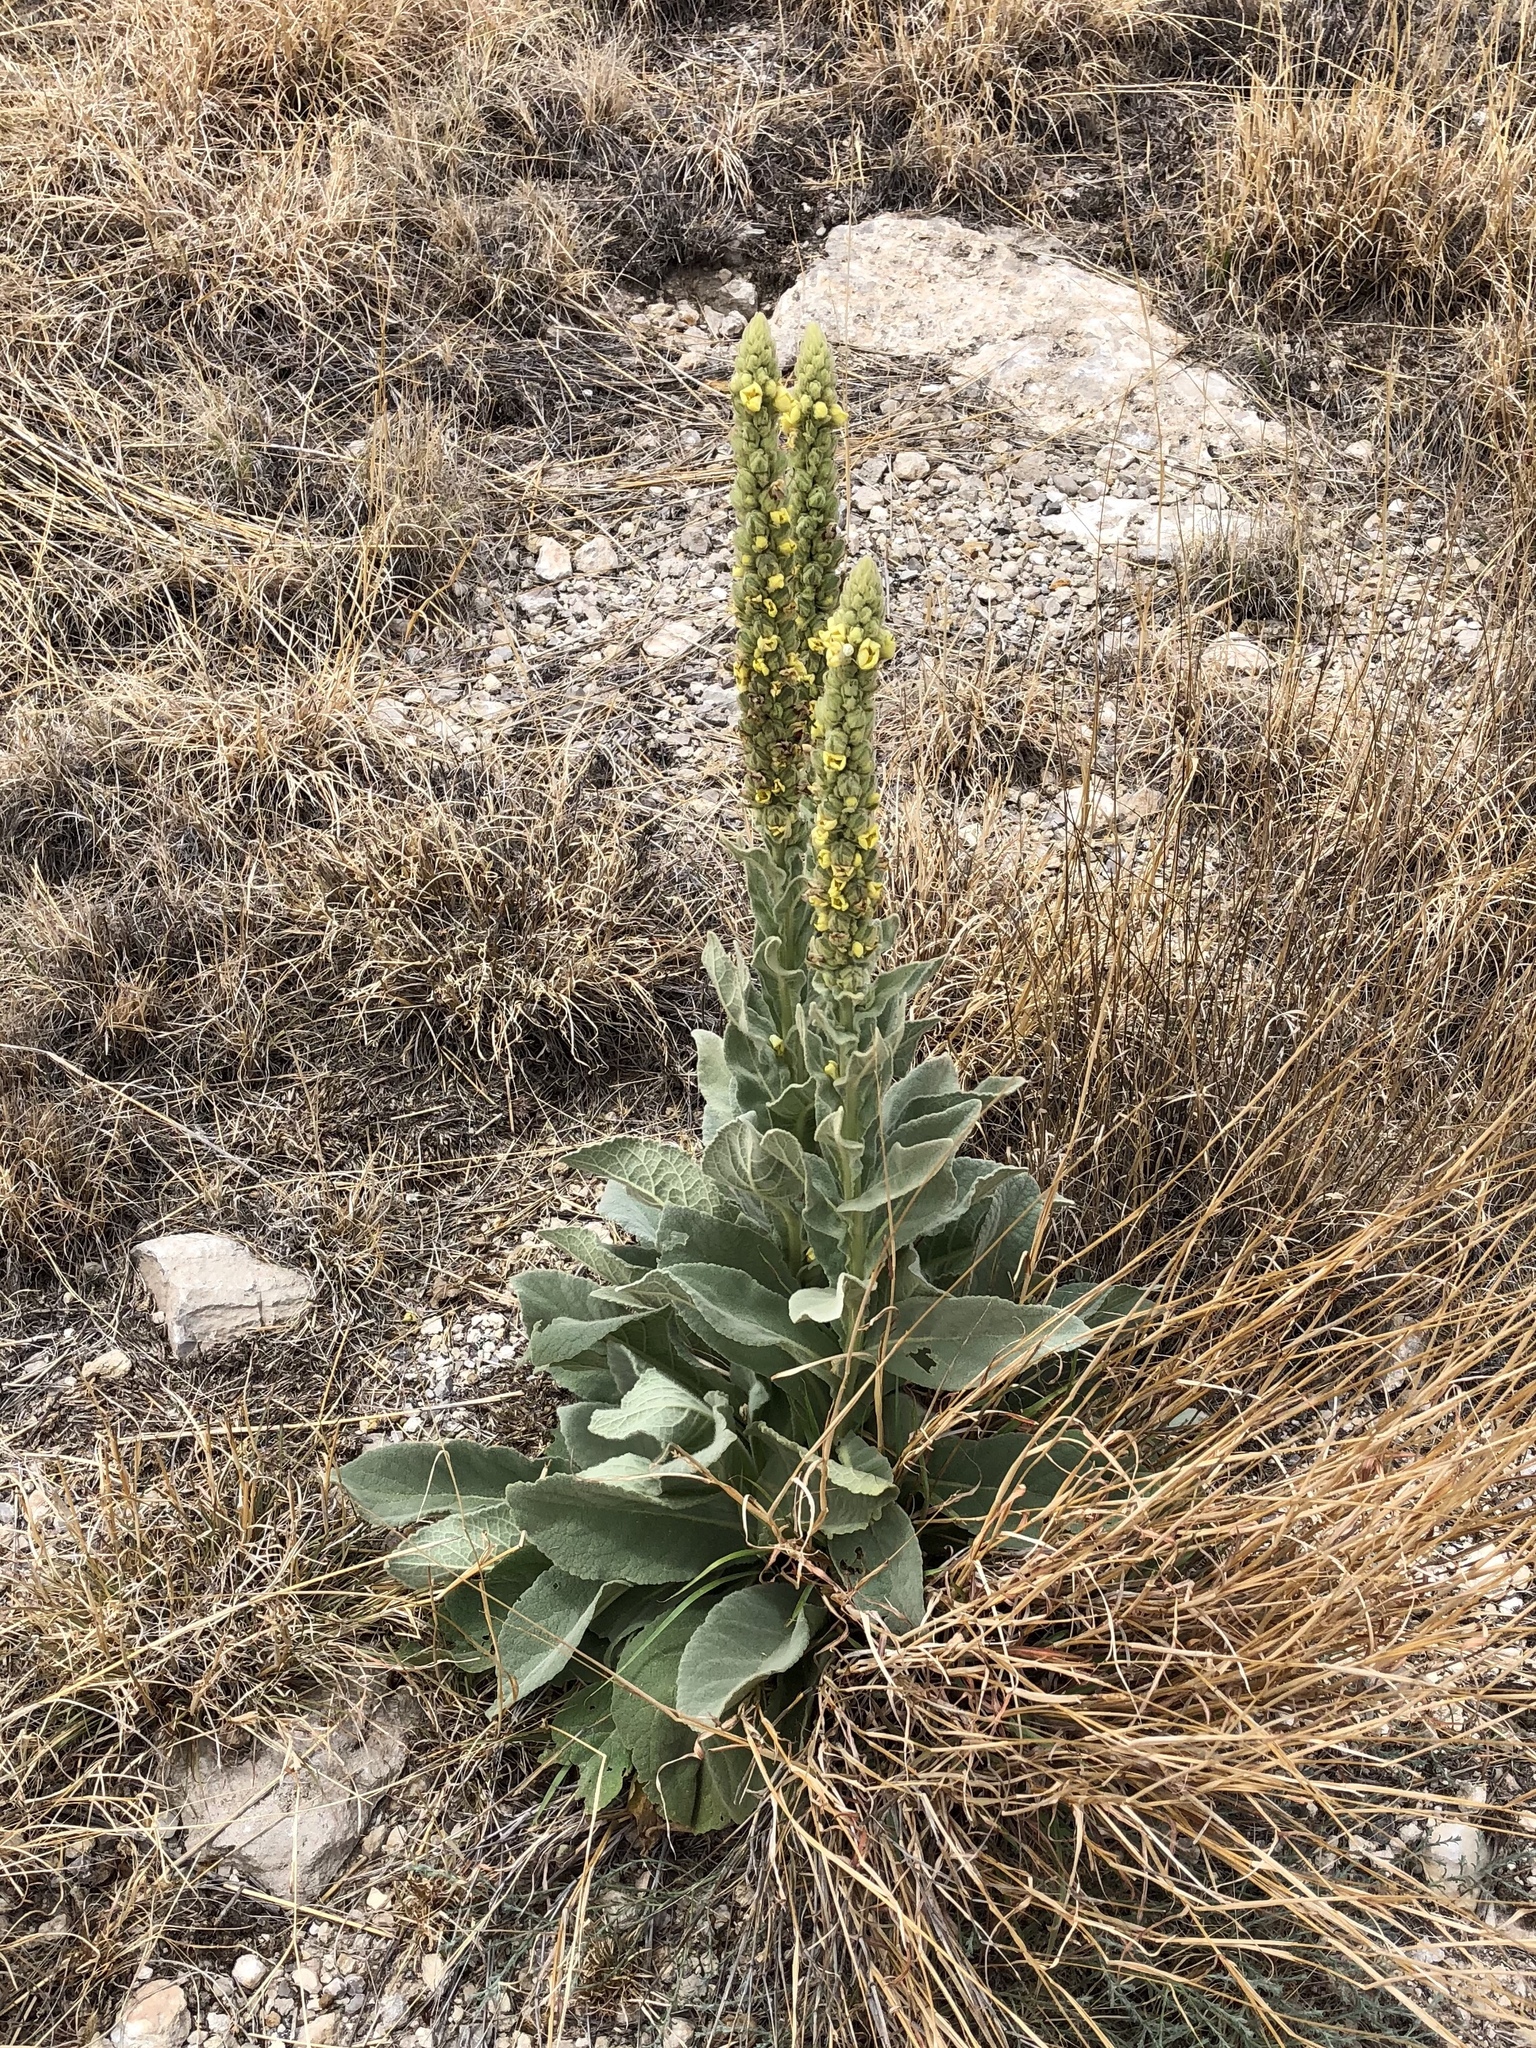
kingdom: Plantae
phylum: Tracheophyta
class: Magnoliopsida
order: Lamiales
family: Scrophulariaceae
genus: Verbascum
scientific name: Verbascum thapsus
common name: Common mullein
